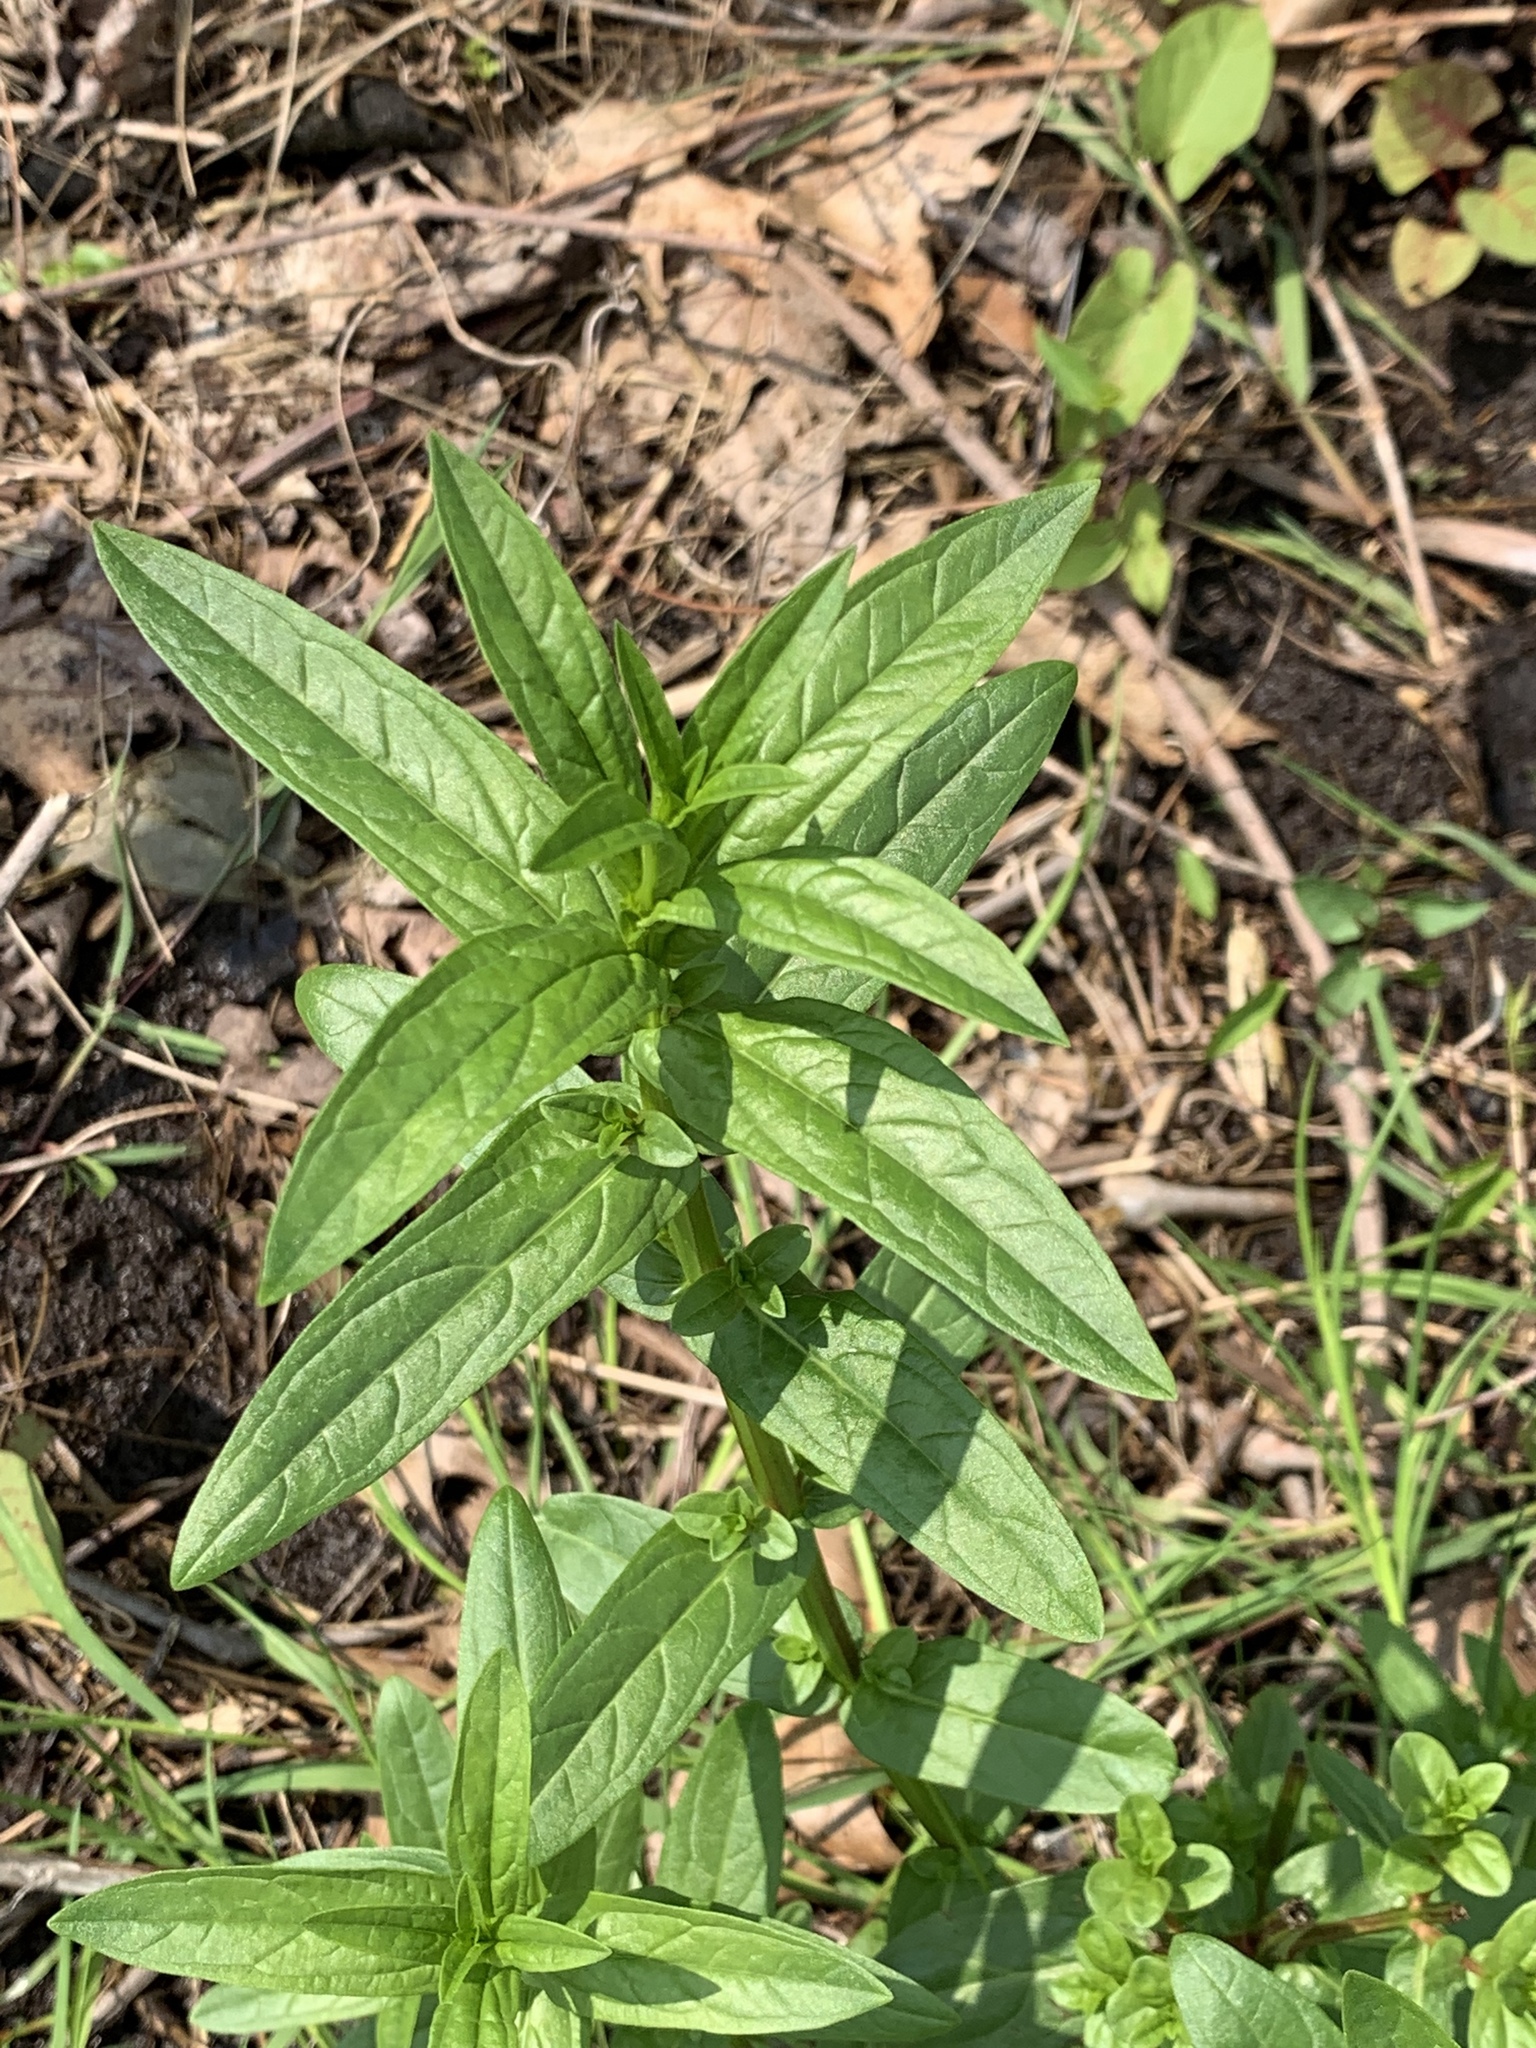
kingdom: Plantae
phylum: Tracheophyta
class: Magnoliopsida
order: Myrtales
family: Lythraceae
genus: Lythrum
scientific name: Lythrum salicaria
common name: Purple loosestrife
